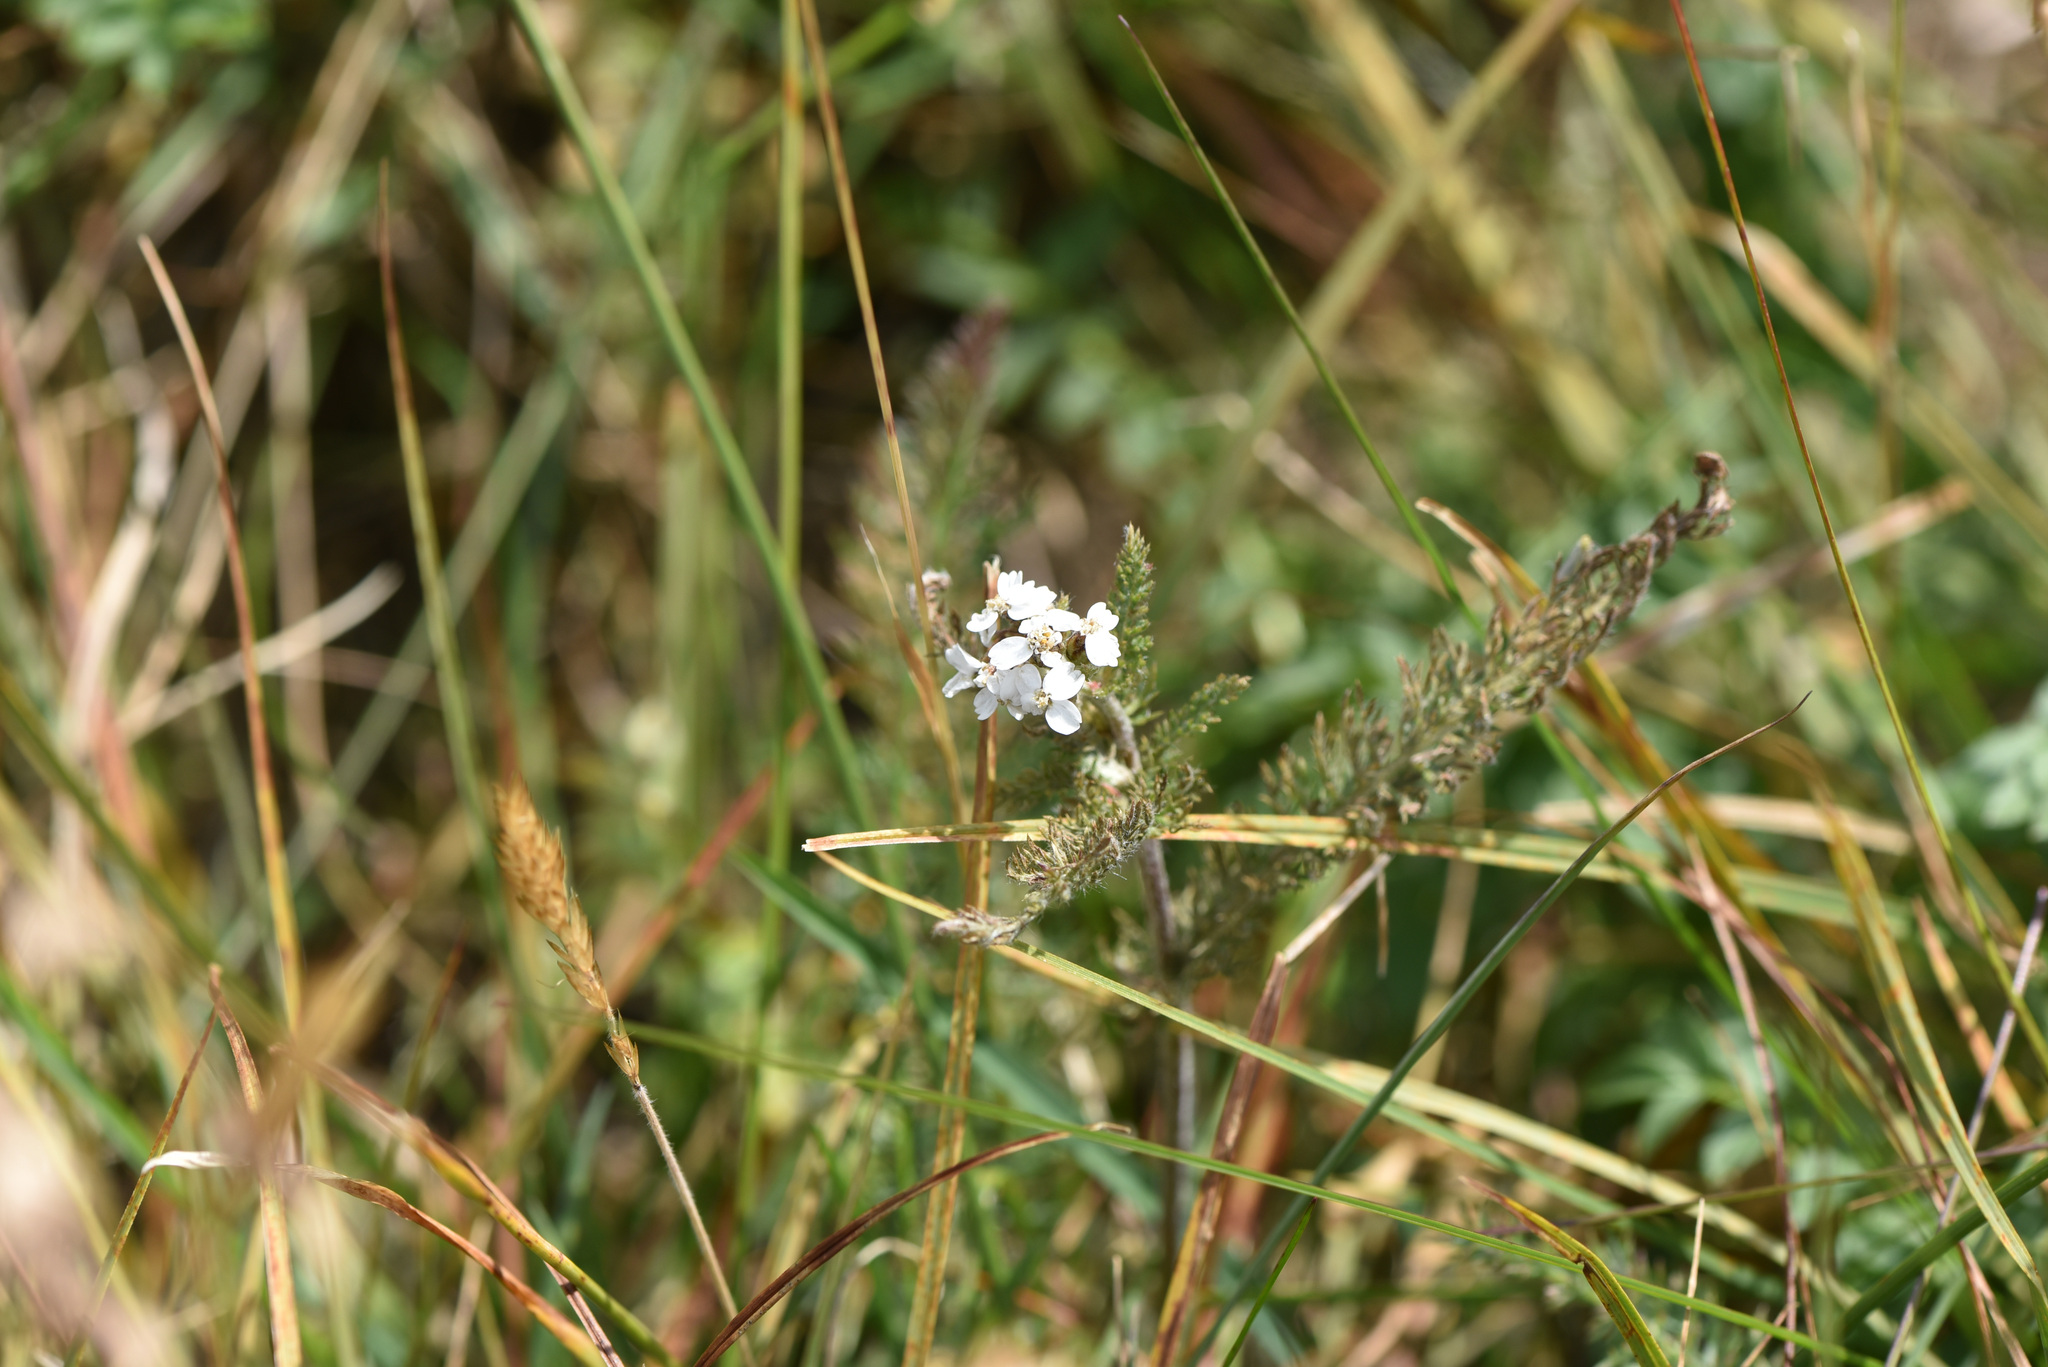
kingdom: Plantae
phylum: Tracheophyta
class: Magnoliopsida
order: Asterales
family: Asteraceae
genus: Achillea
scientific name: Achillea millefolium
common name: Yarrow
